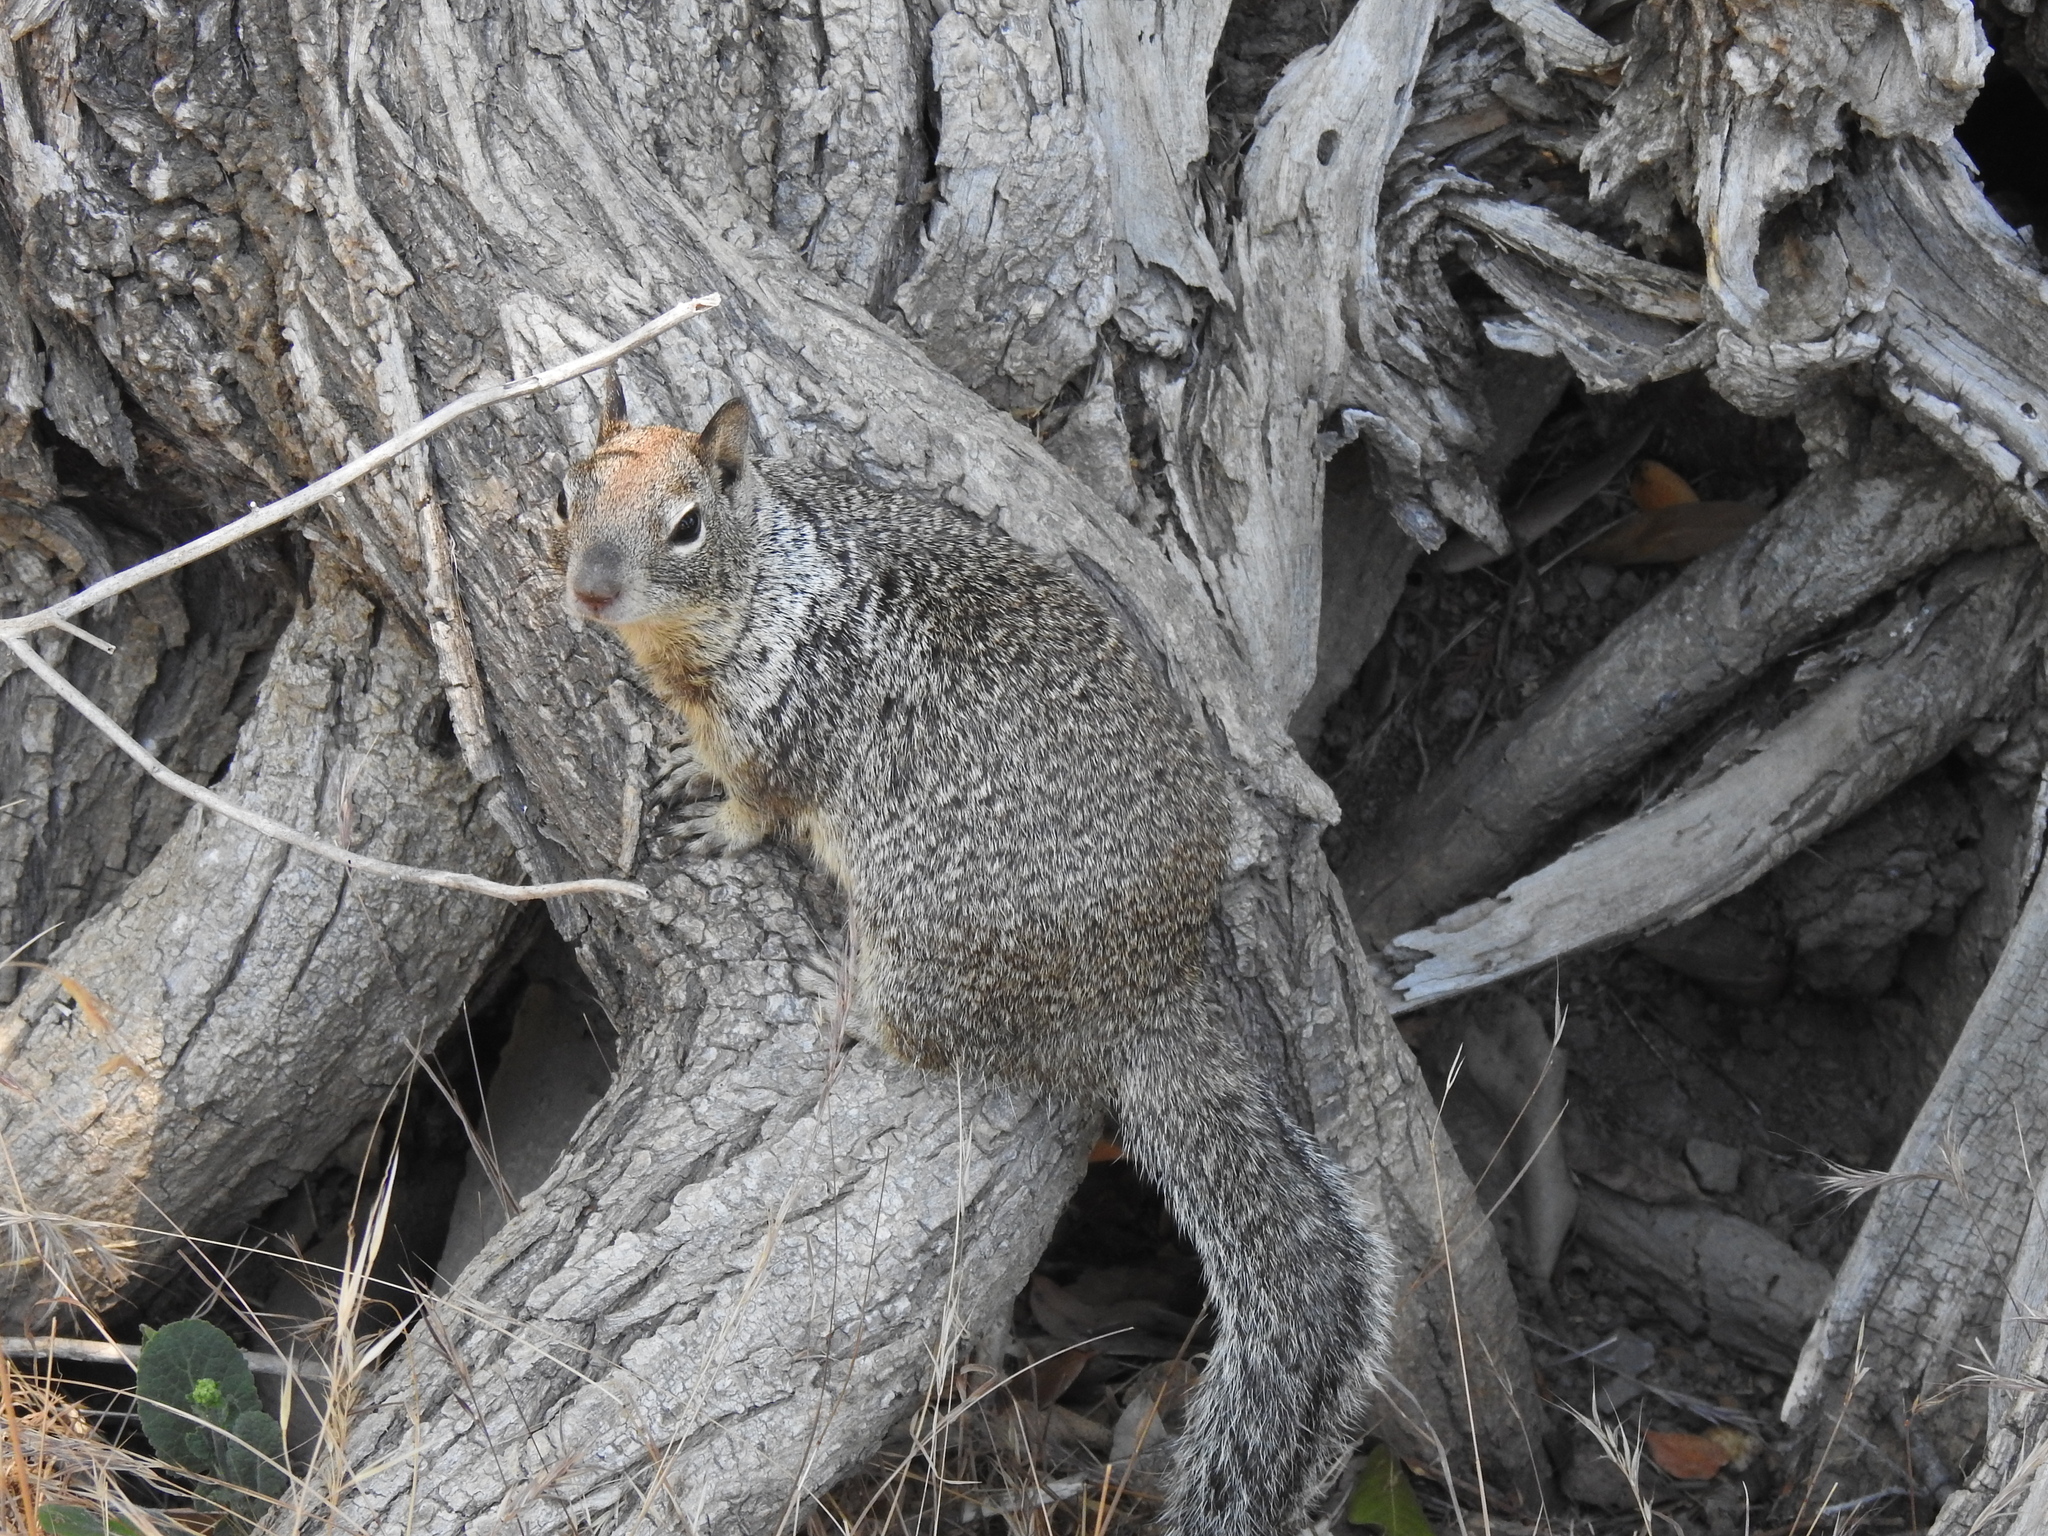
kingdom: Animalia
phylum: Chordata
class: Mammalia
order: Rodentia
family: Sciuridae
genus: Otospermophilus
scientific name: Otospermophilus beecheyi
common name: California ground squirrel
